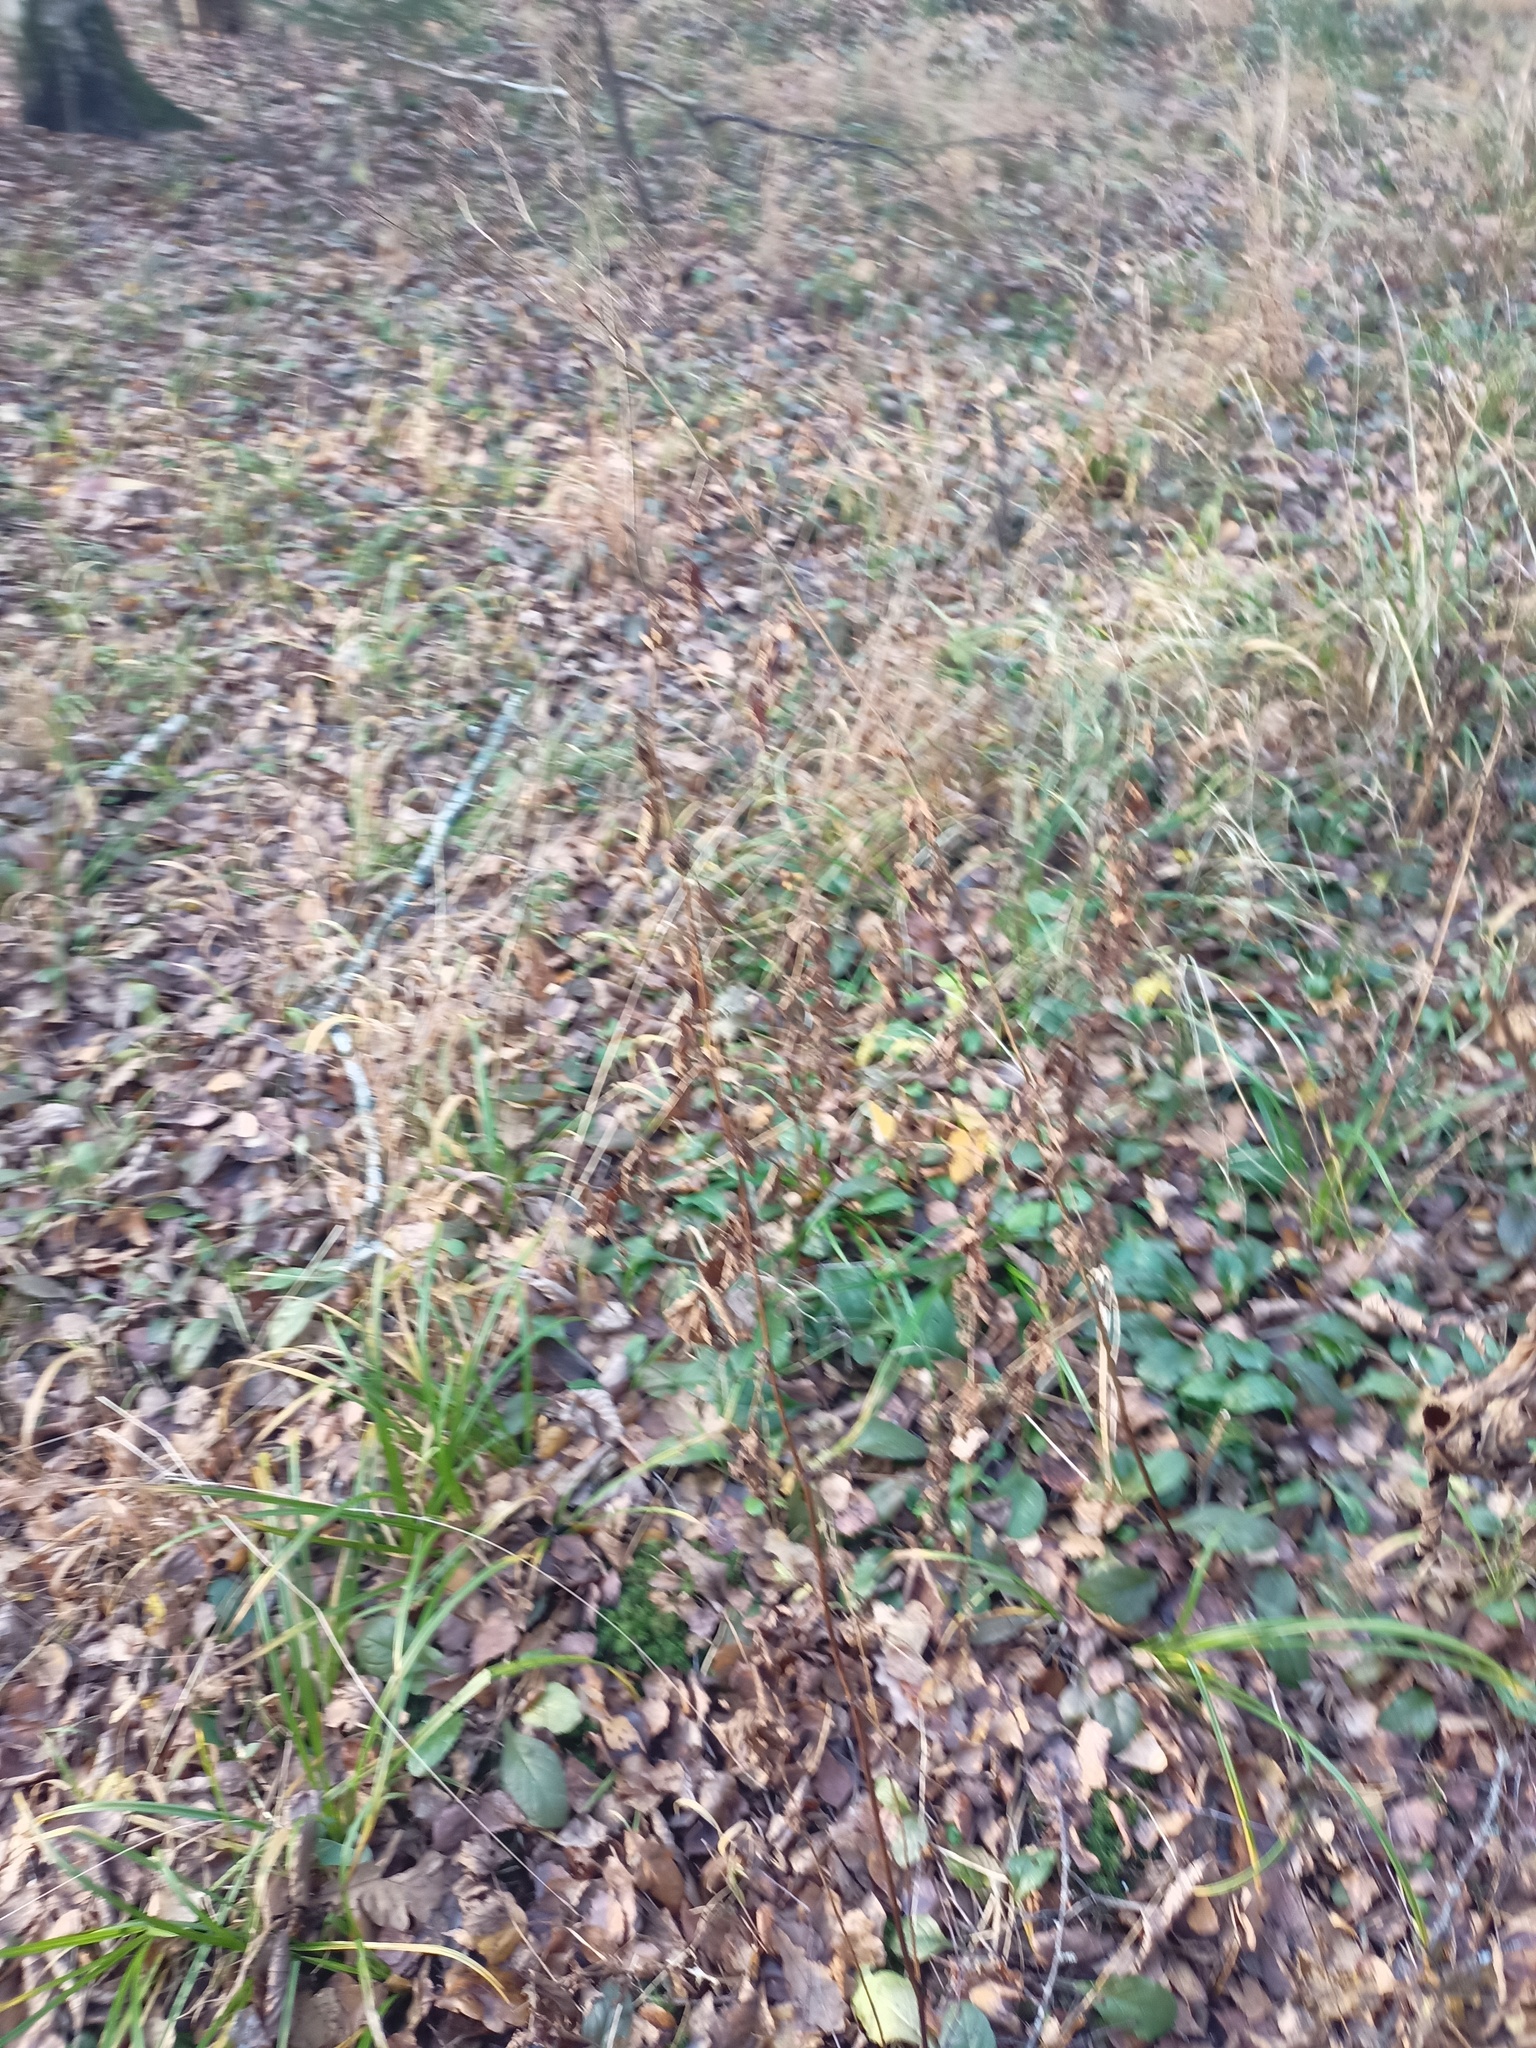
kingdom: Plantae
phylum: Tracheophyta
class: Magnoliopsida
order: Rosales
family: Rosaceae
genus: Filipendula
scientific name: Filipendula ulmaria
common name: Meadowsweet
